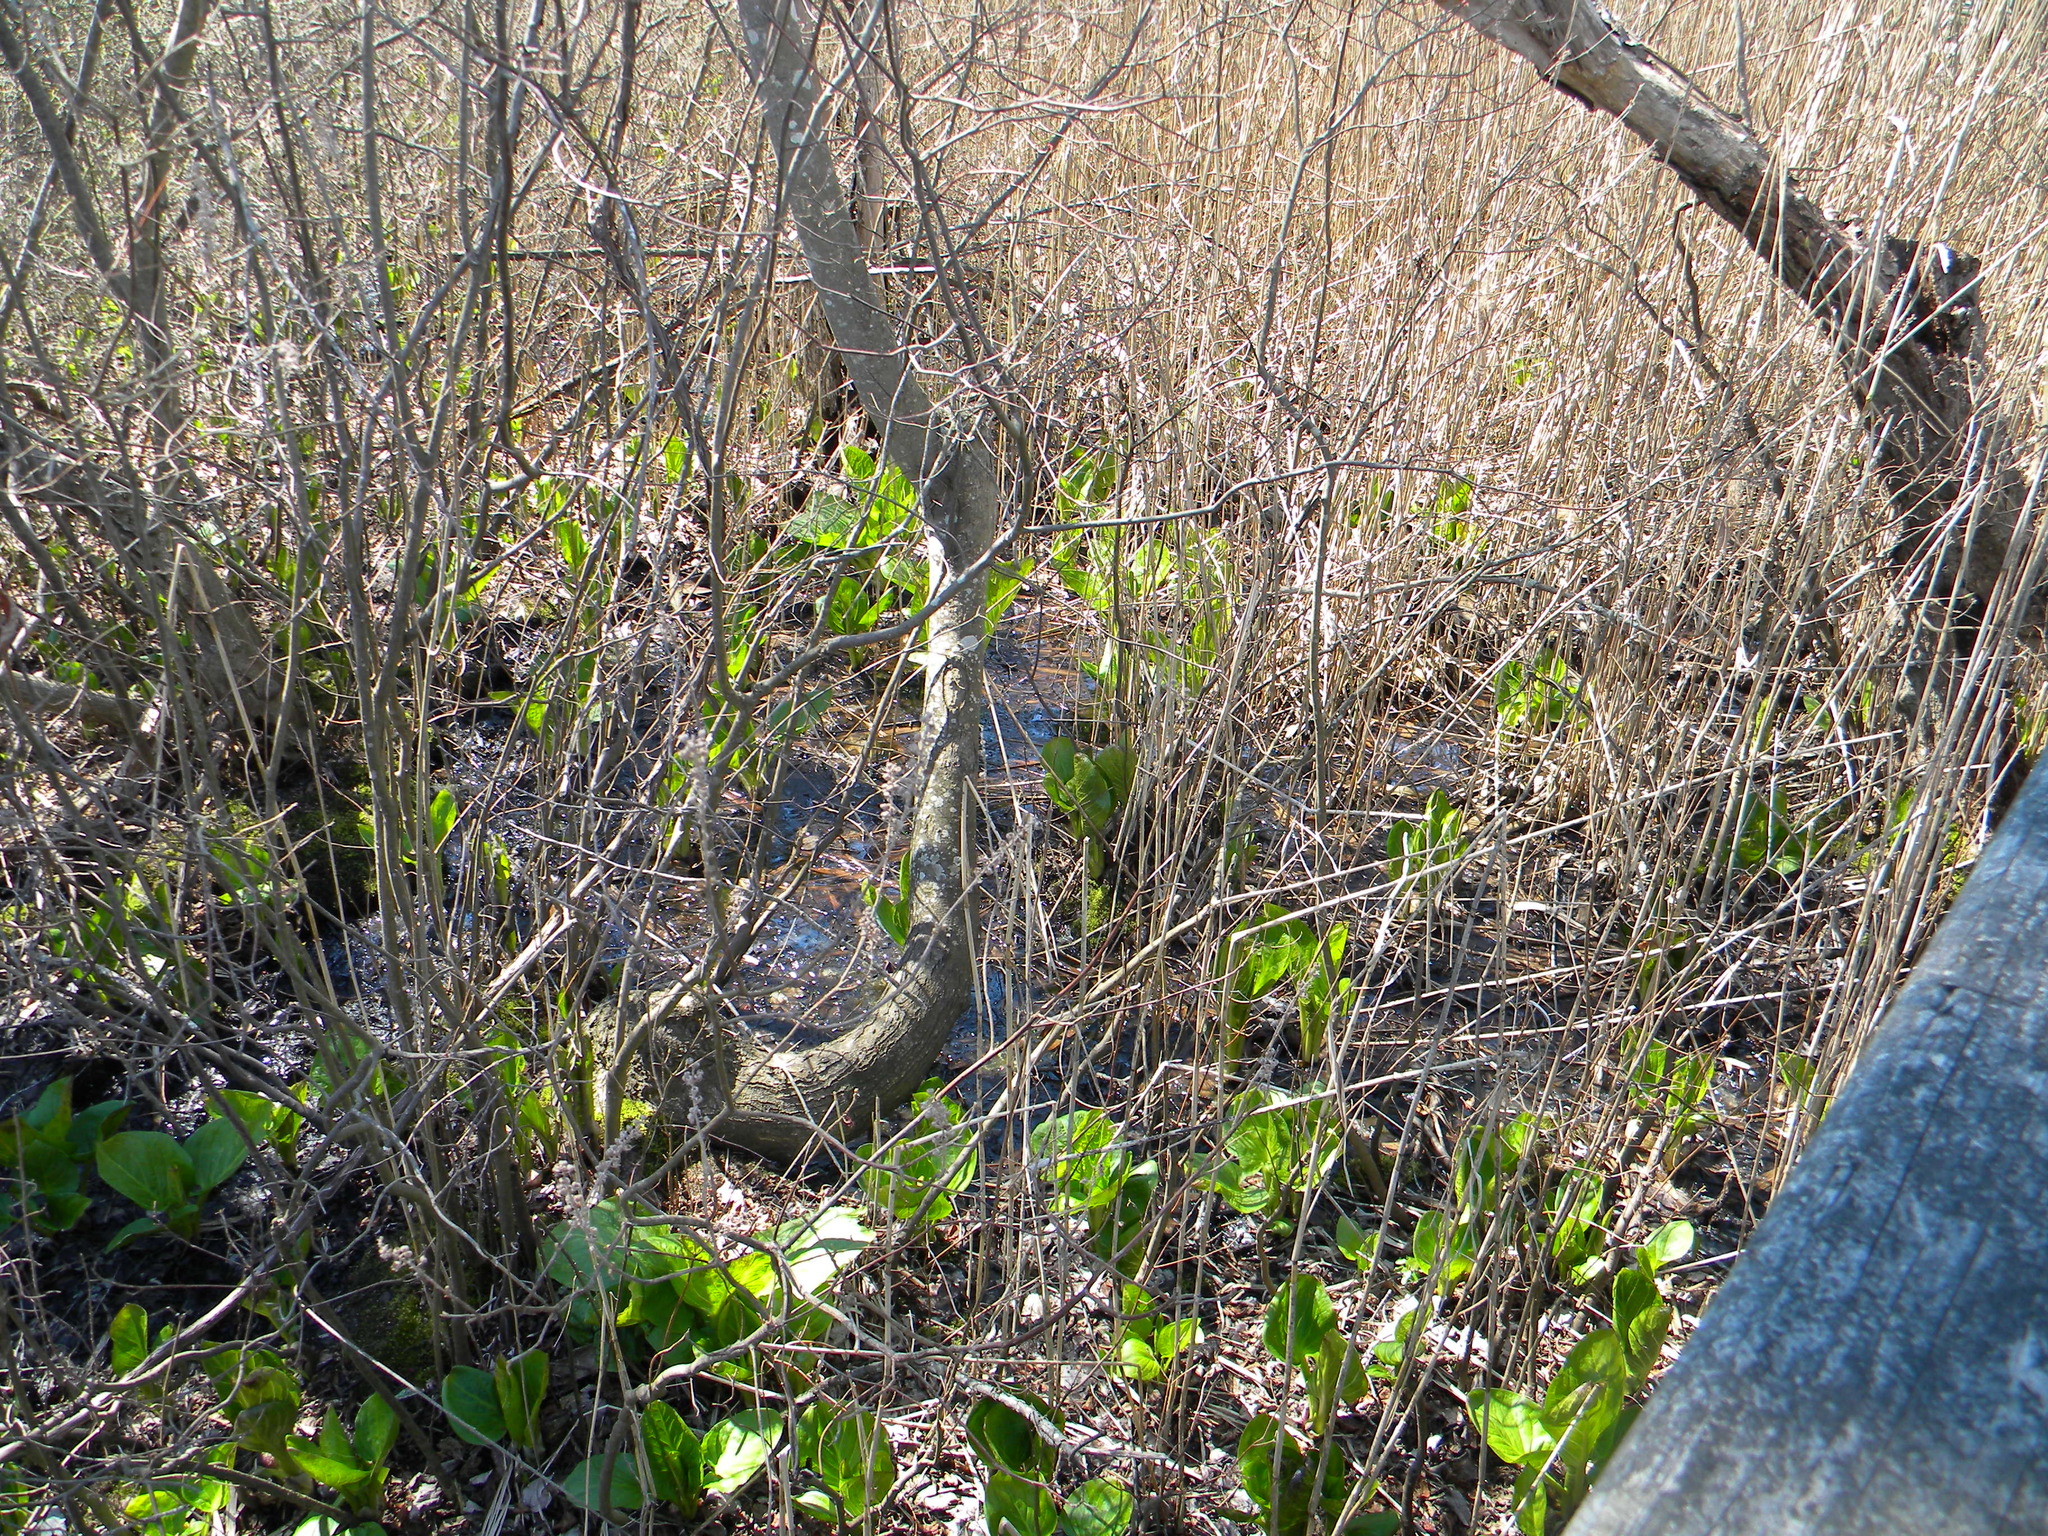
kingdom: Plantae
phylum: Tracheophyta
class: Liliopsida
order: Alismatales
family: Araceae
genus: Symplocarpus
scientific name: Symplocarpus foetidus
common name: Eastern skunk cabbage
